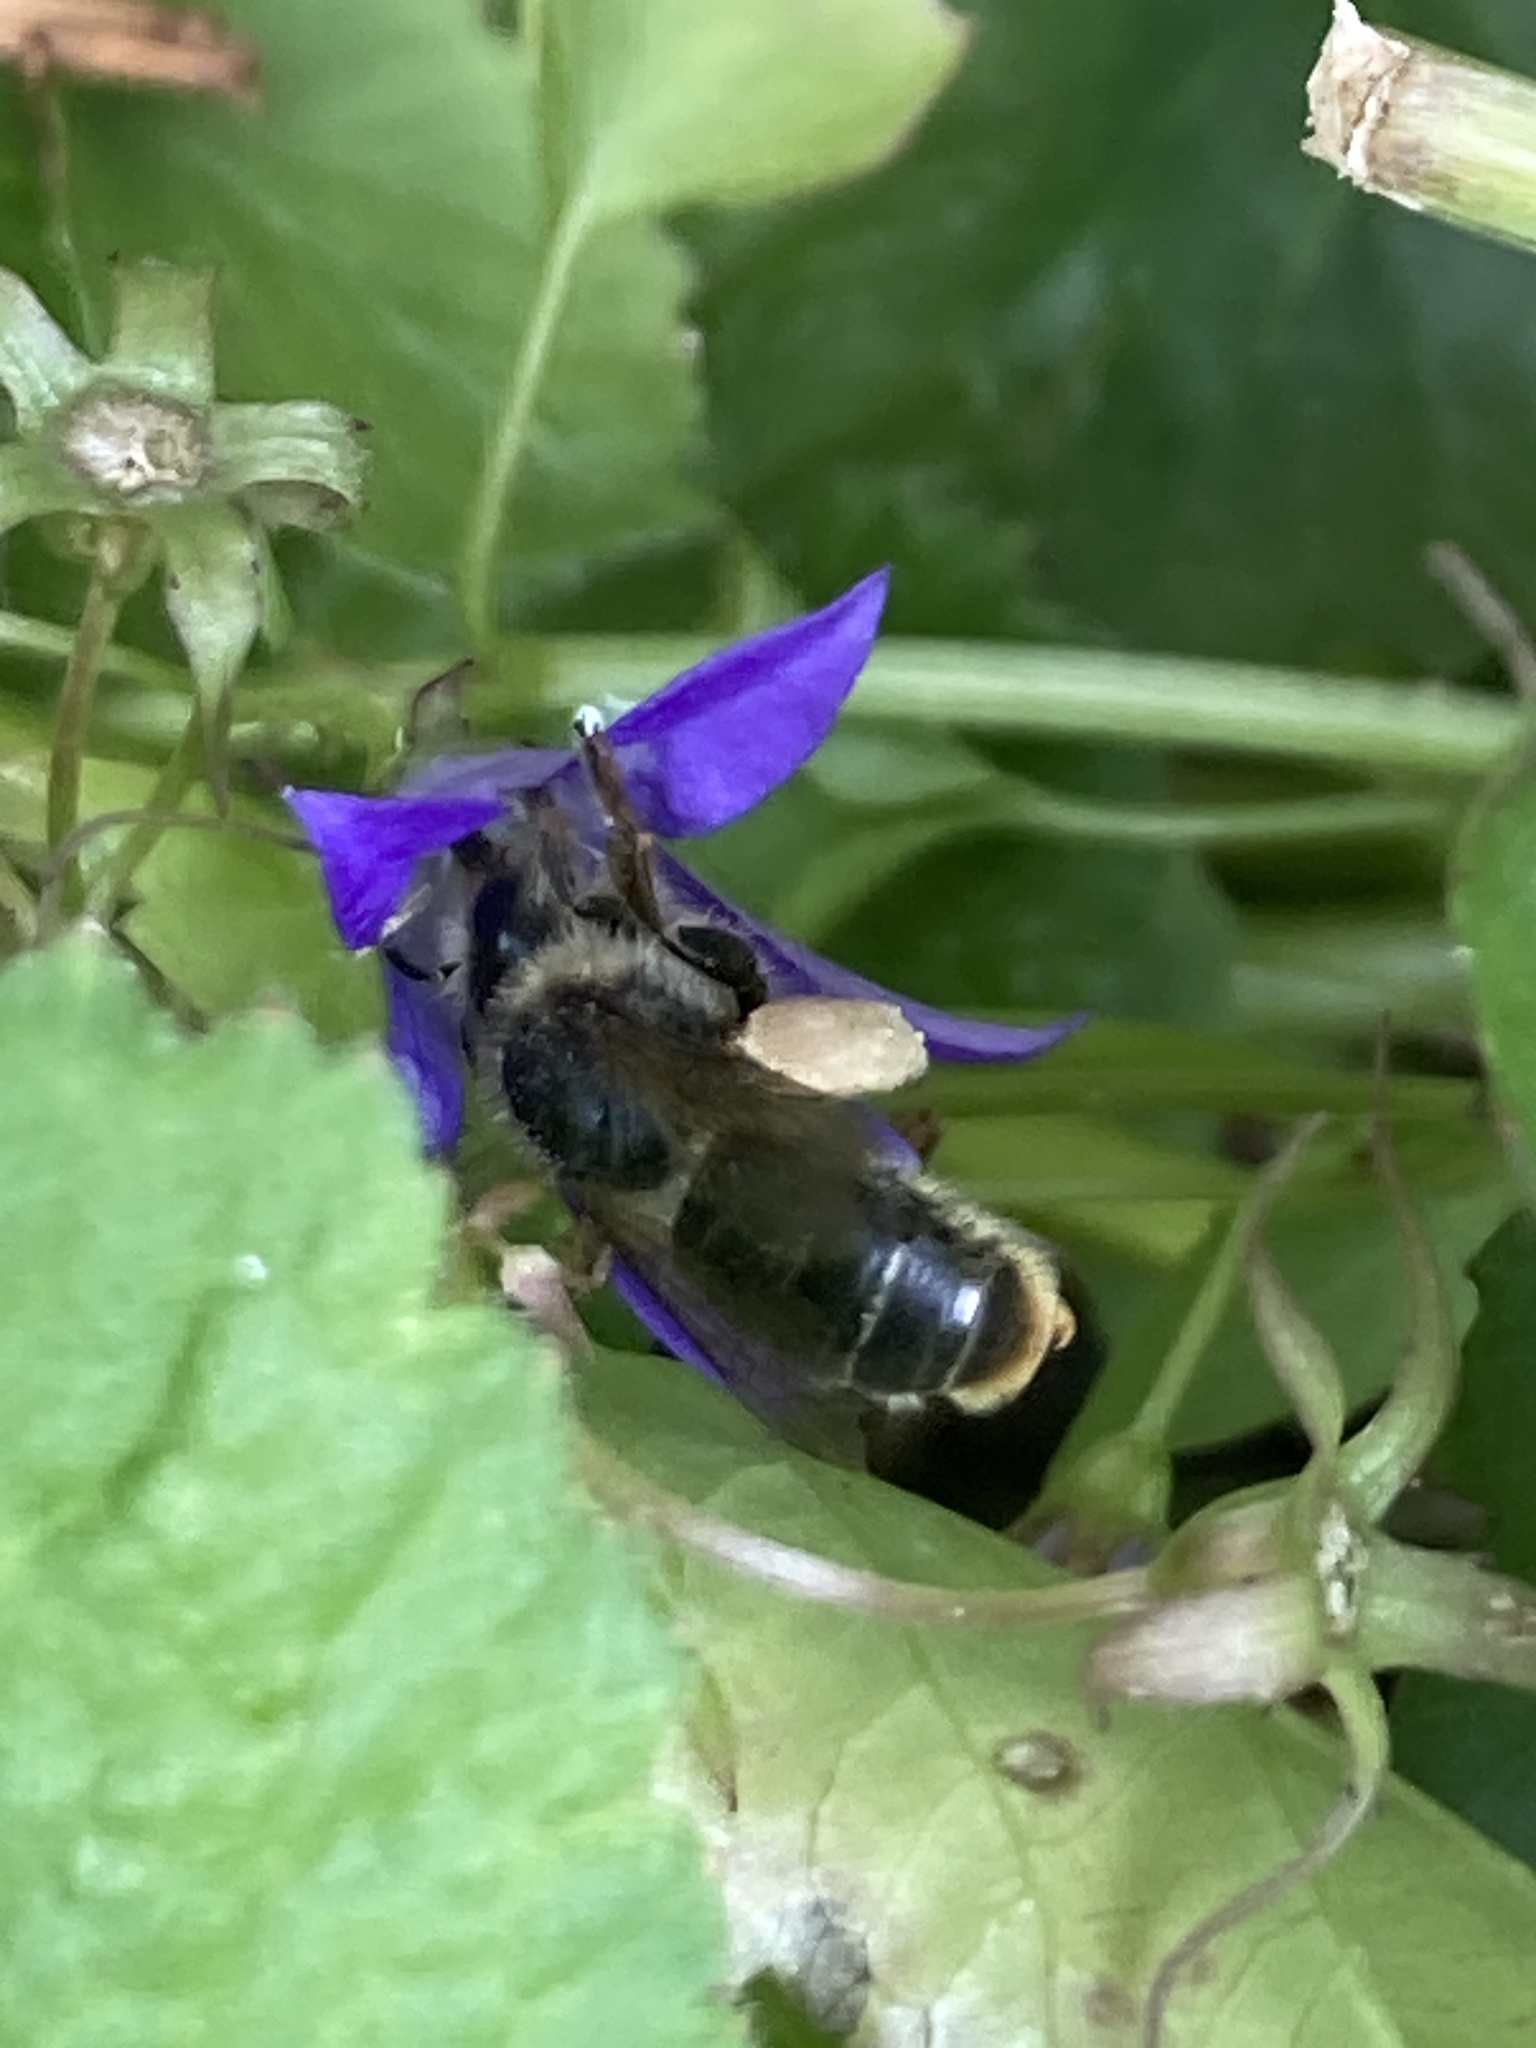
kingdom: Animalia
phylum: Arthropoda
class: Insecta
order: Hymenoptera
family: Melittidae
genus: Melitta
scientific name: Melitta haemorrhoidalis
